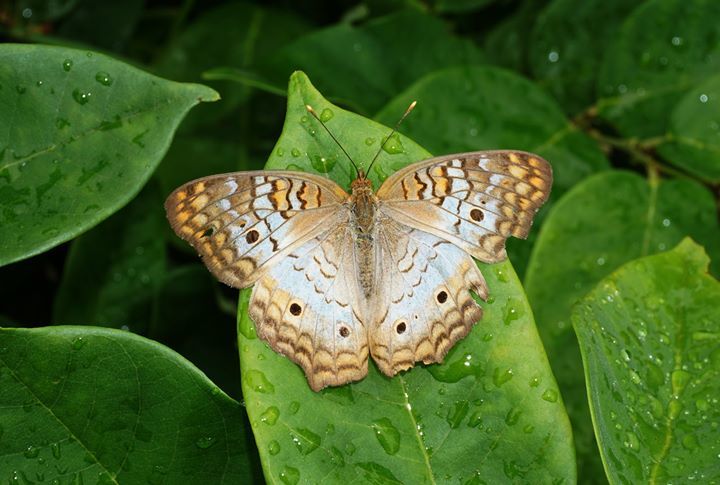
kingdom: Animalia
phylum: Arthropoda
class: Insecta
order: Lepidoptera
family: Nymphalidae
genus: Anartia
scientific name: Anartia jatrophae
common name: White peacock
